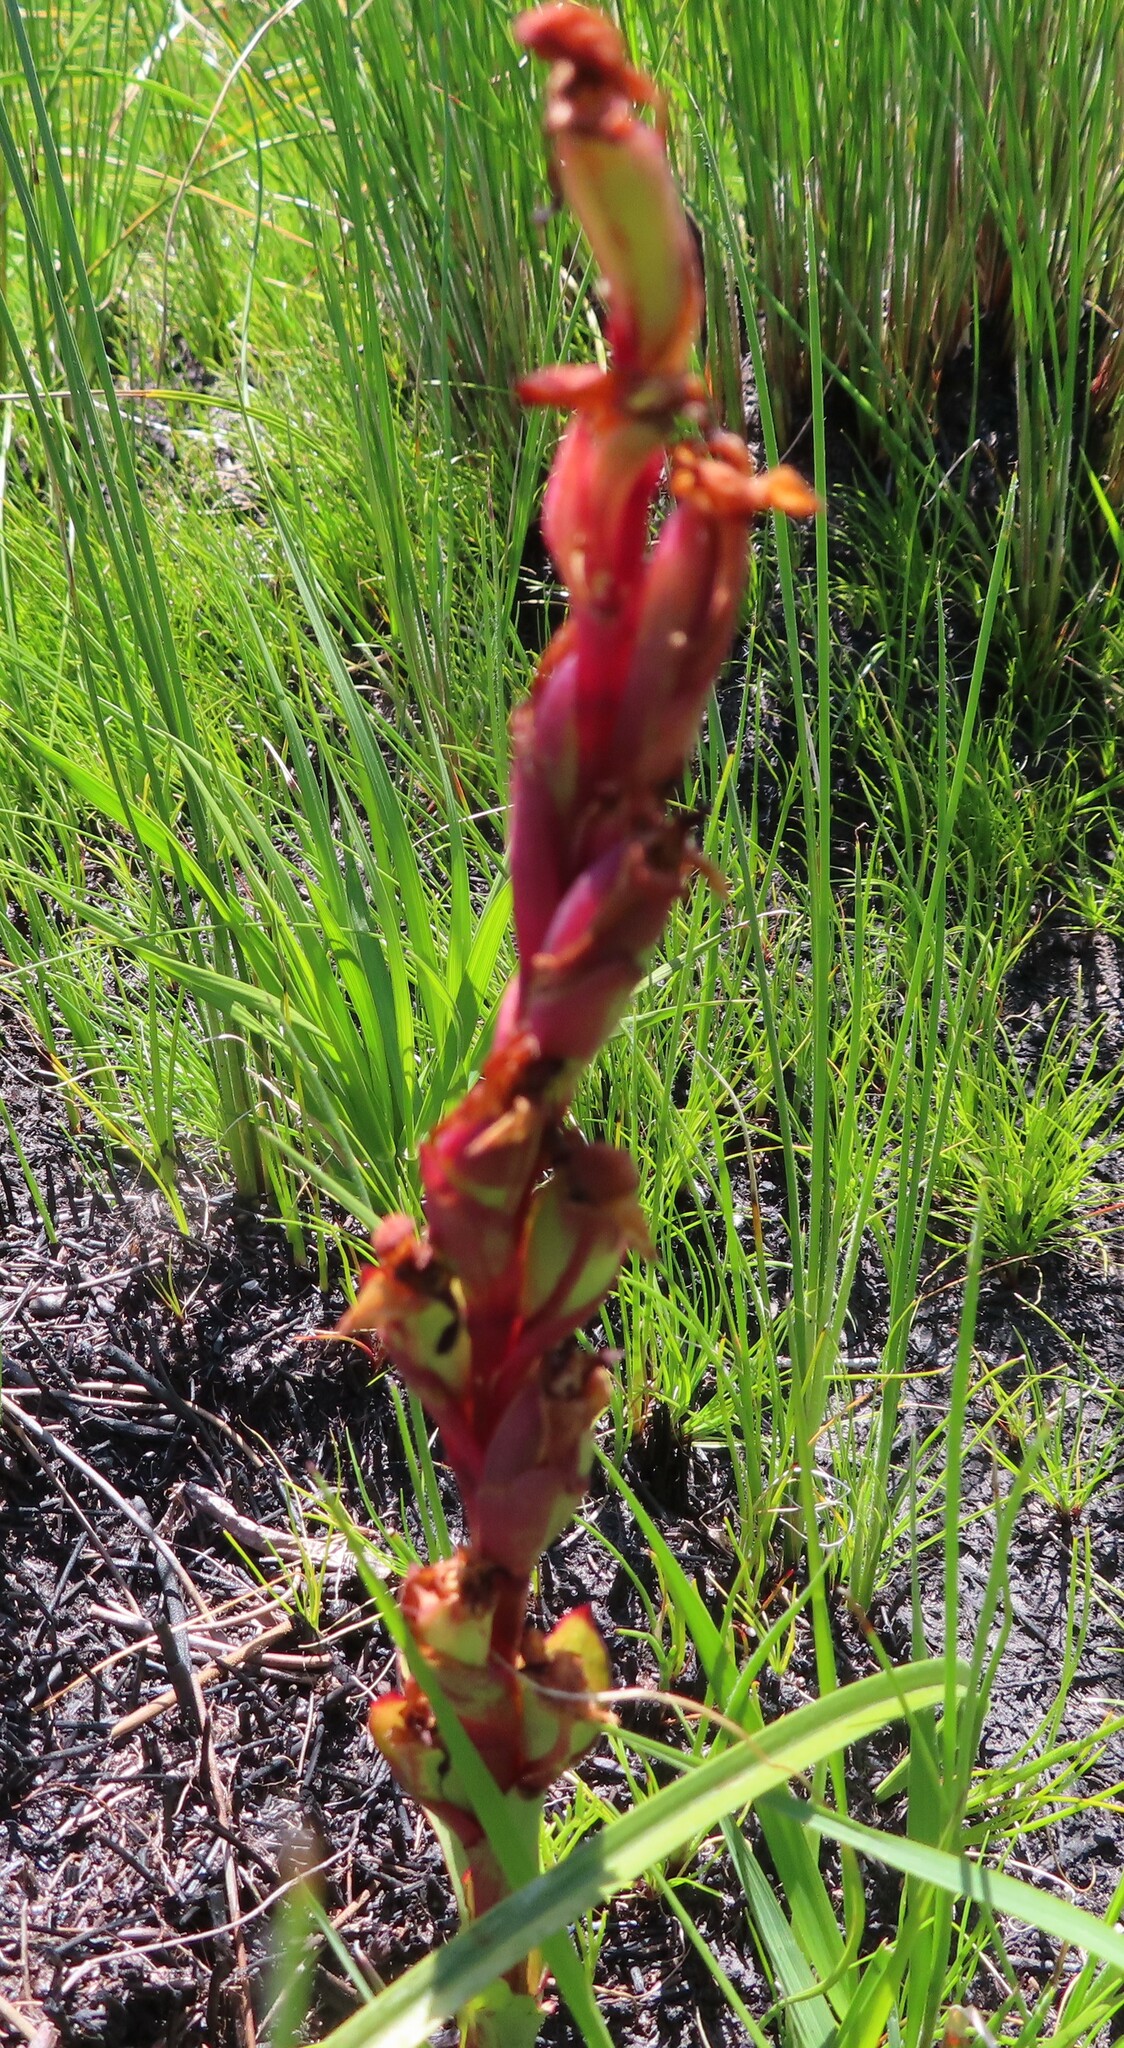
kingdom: Plantae
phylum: Tracheophyta
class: Liliopsida
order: Asparagales
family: Orchidaceae
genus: Disa
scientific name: Disa ophrydea
